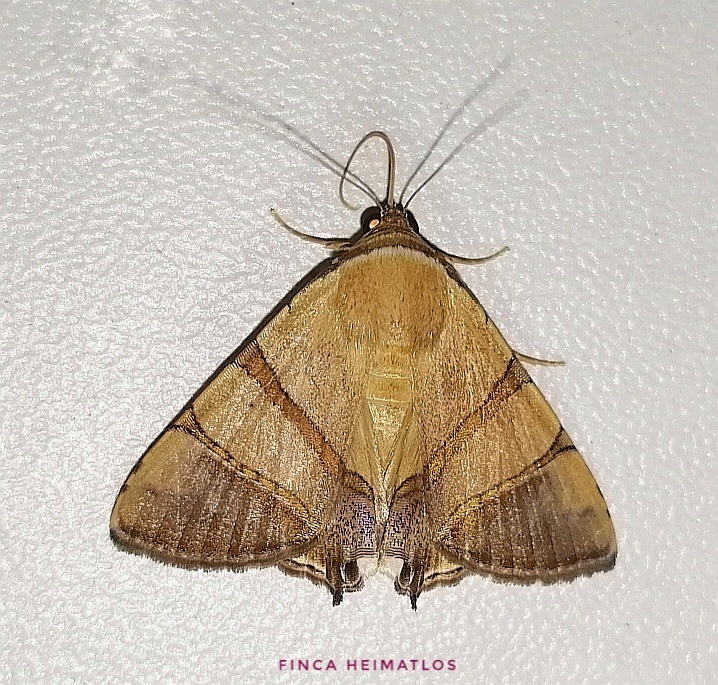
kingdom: Animalia
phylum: Arthropoda
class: Insecta
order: Lepidoptera
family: Erebidae
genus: Eulepidotis
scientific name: Eulepidotis juncida
